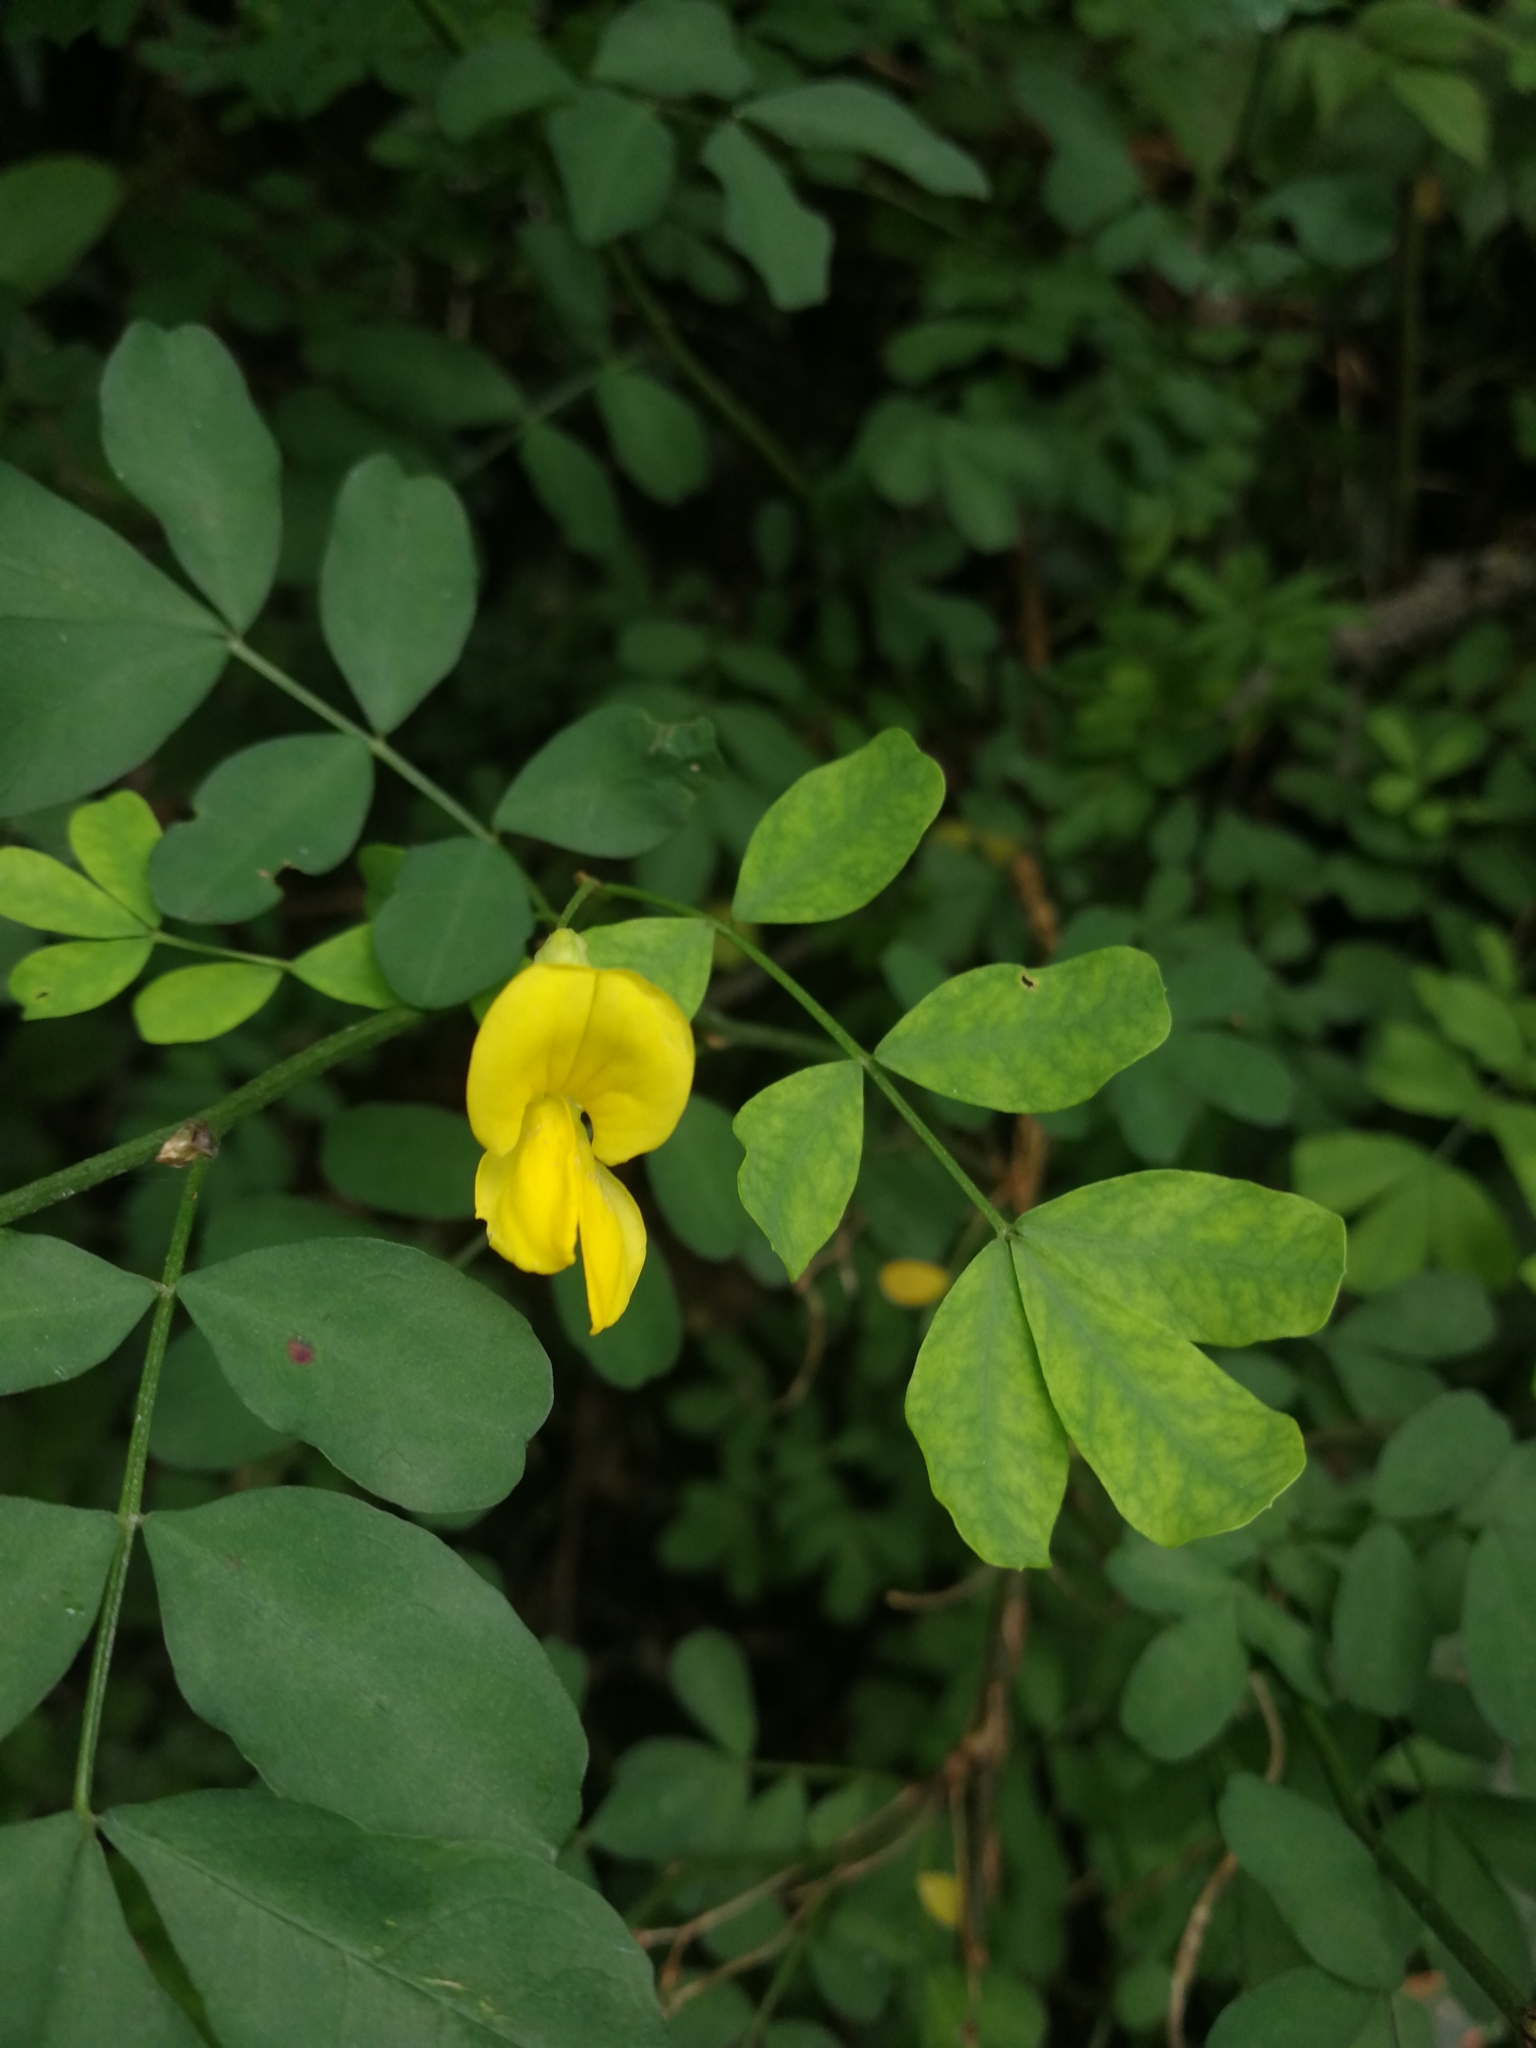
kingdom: Plantae
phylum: Tracheophyta
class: Magnoliopsida
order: Fabales
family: Fabaceae
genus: Hippocrepis
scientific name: Hippocrepis emerus
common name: Scorpion senna
